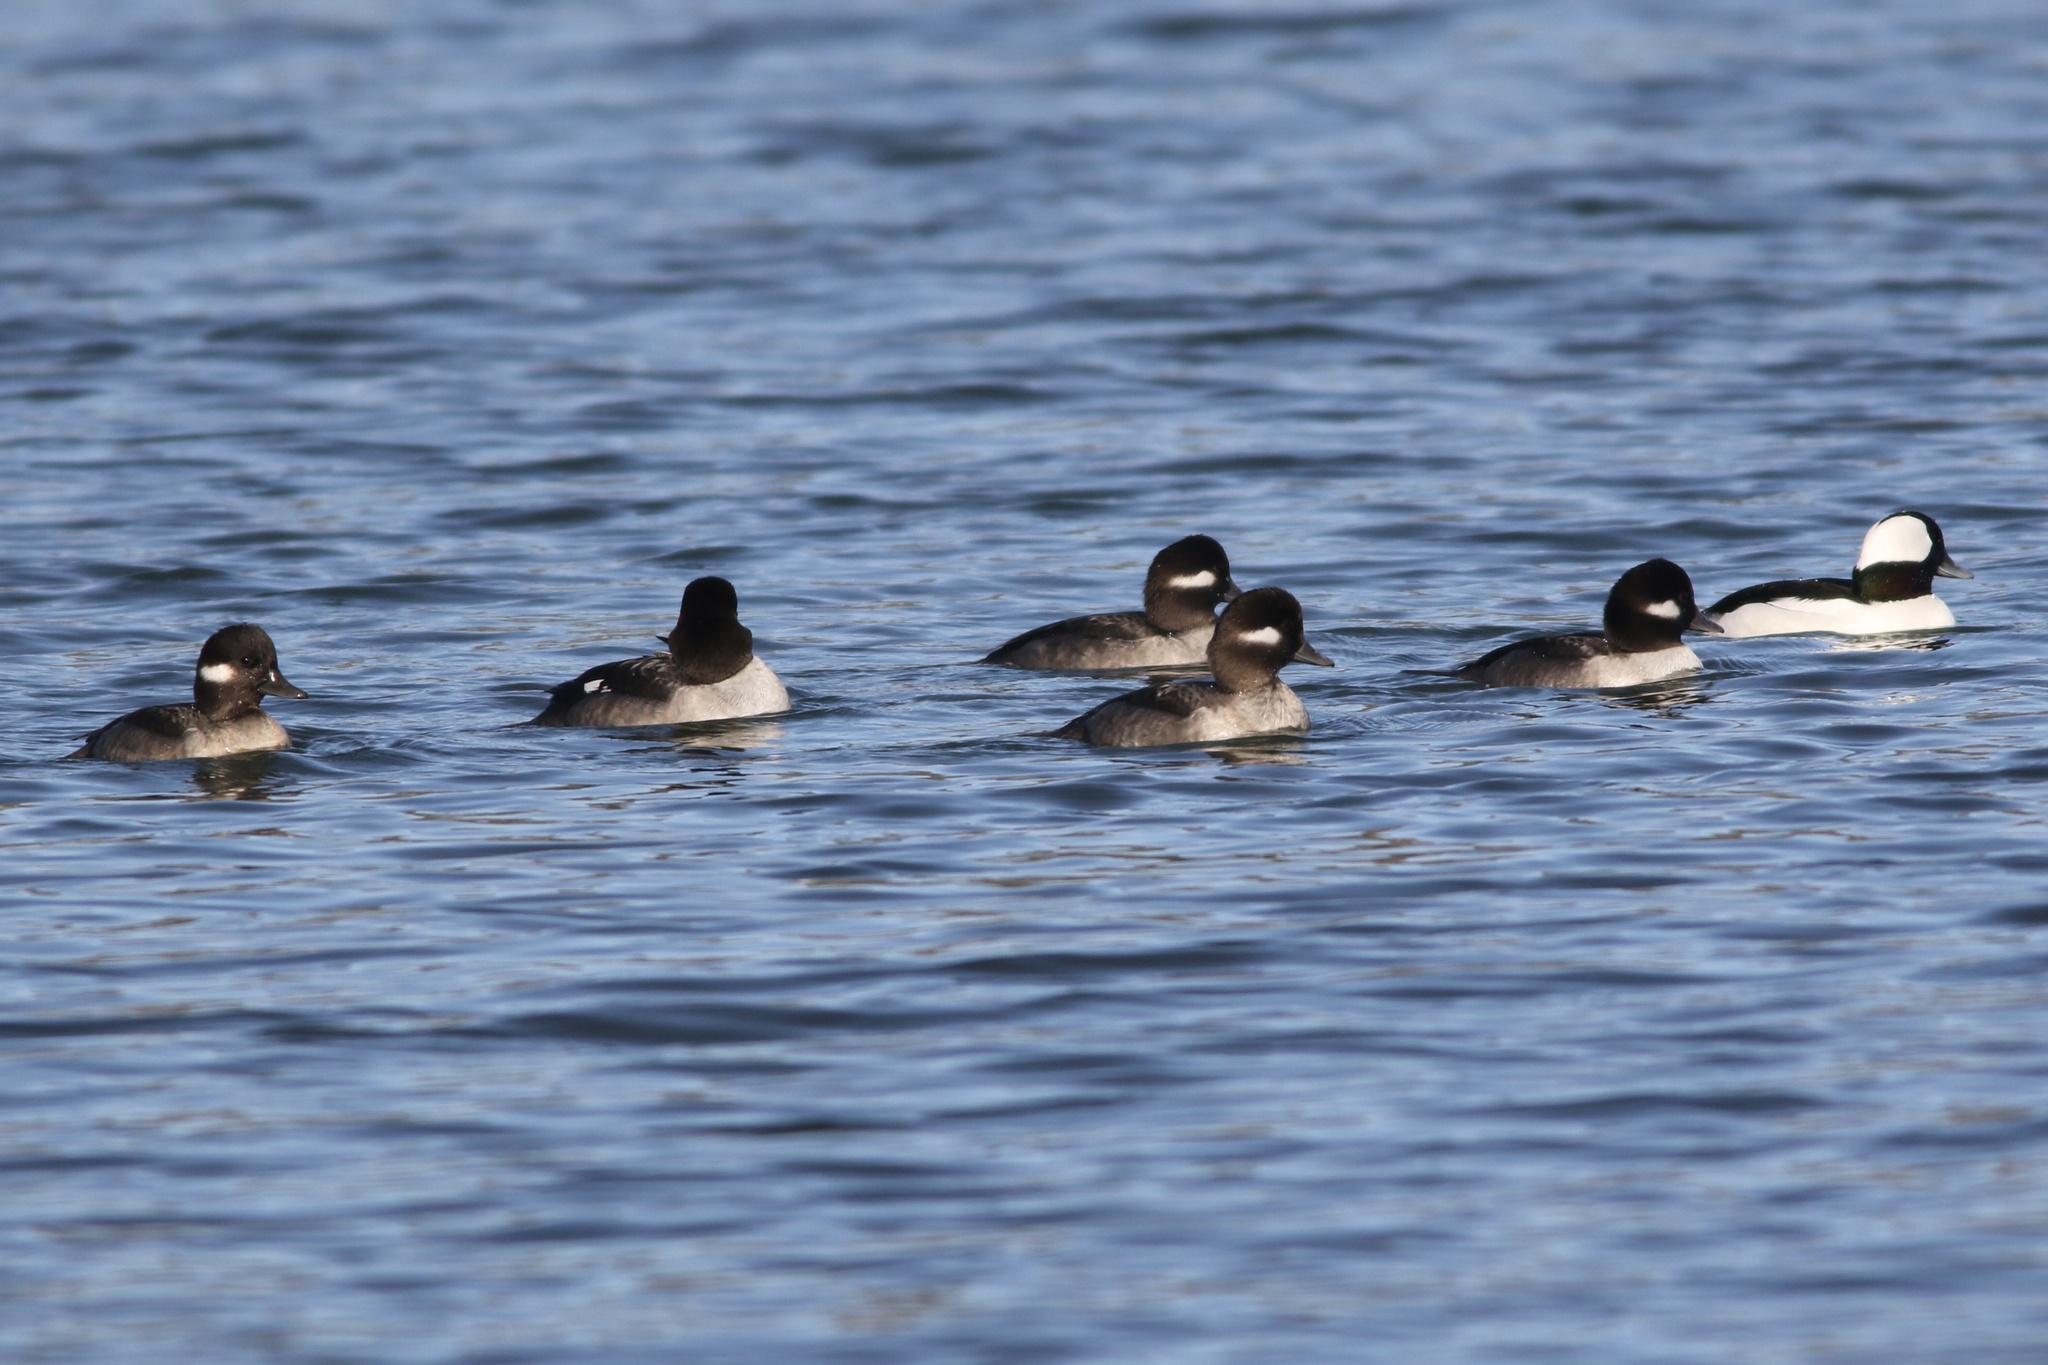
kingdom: Animalia
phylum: Chordata
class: Aves
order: Anseriformes
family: Anatidae
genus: Bucephala
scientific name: Bucephala albeola
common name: Bufflehead
